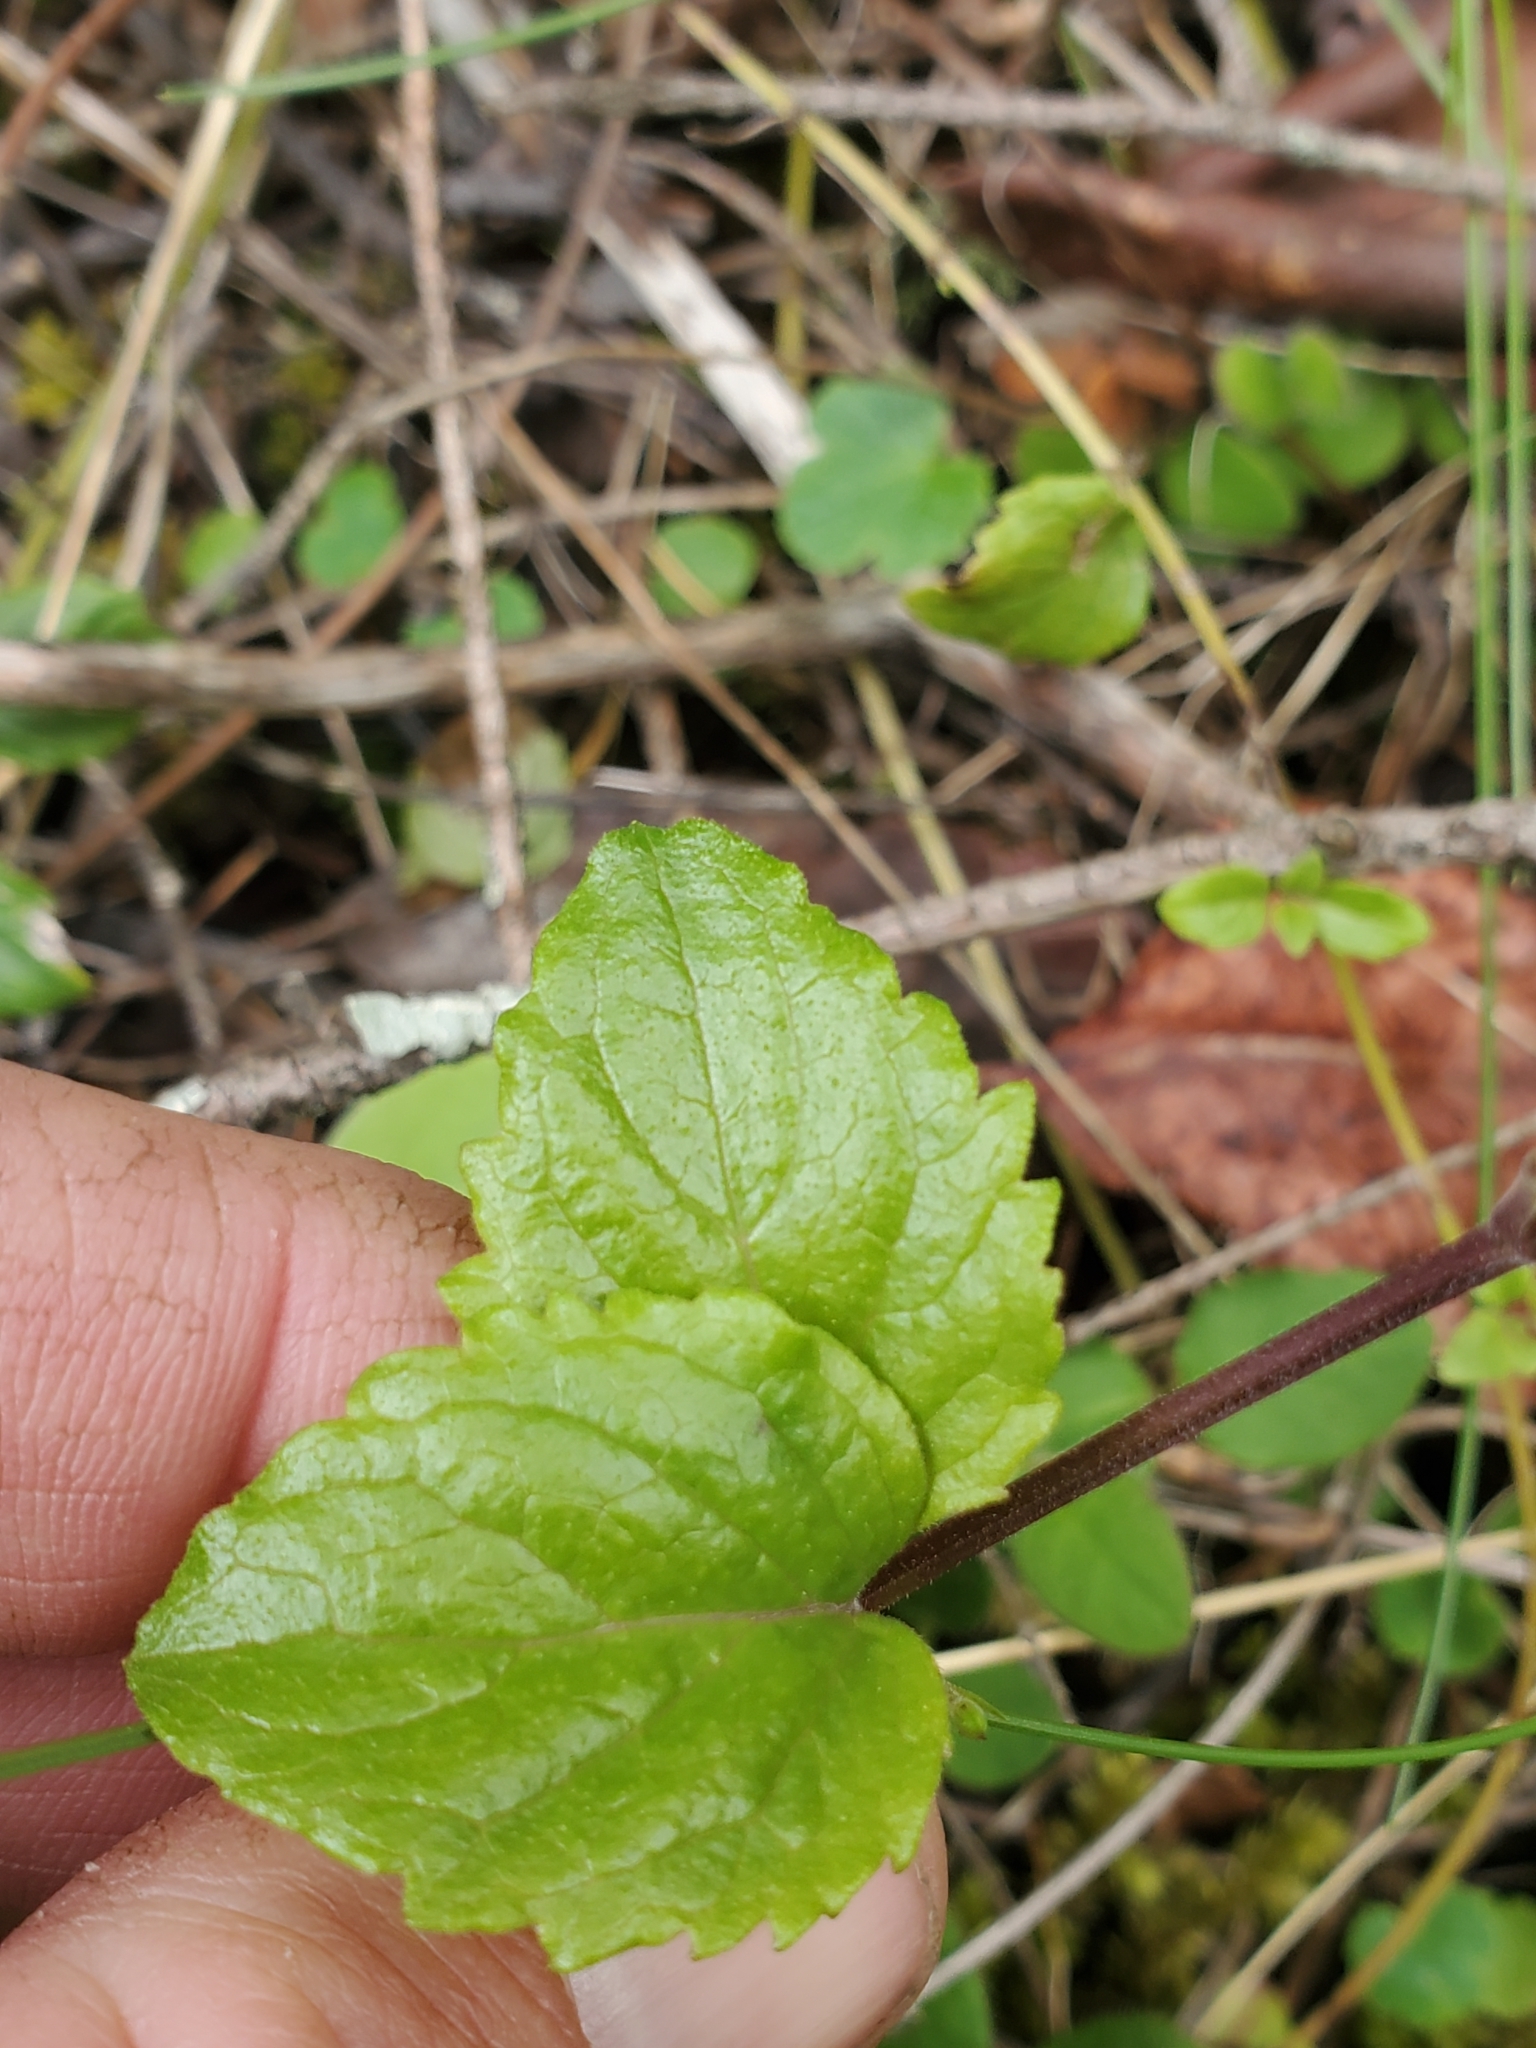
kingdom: Plantae
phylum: Tracheophyta
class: Magnoliopsida
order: Lamiales
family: Lamiaceae
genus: Micromeria
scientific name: Micromeria douglasii
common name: Yerba buena
